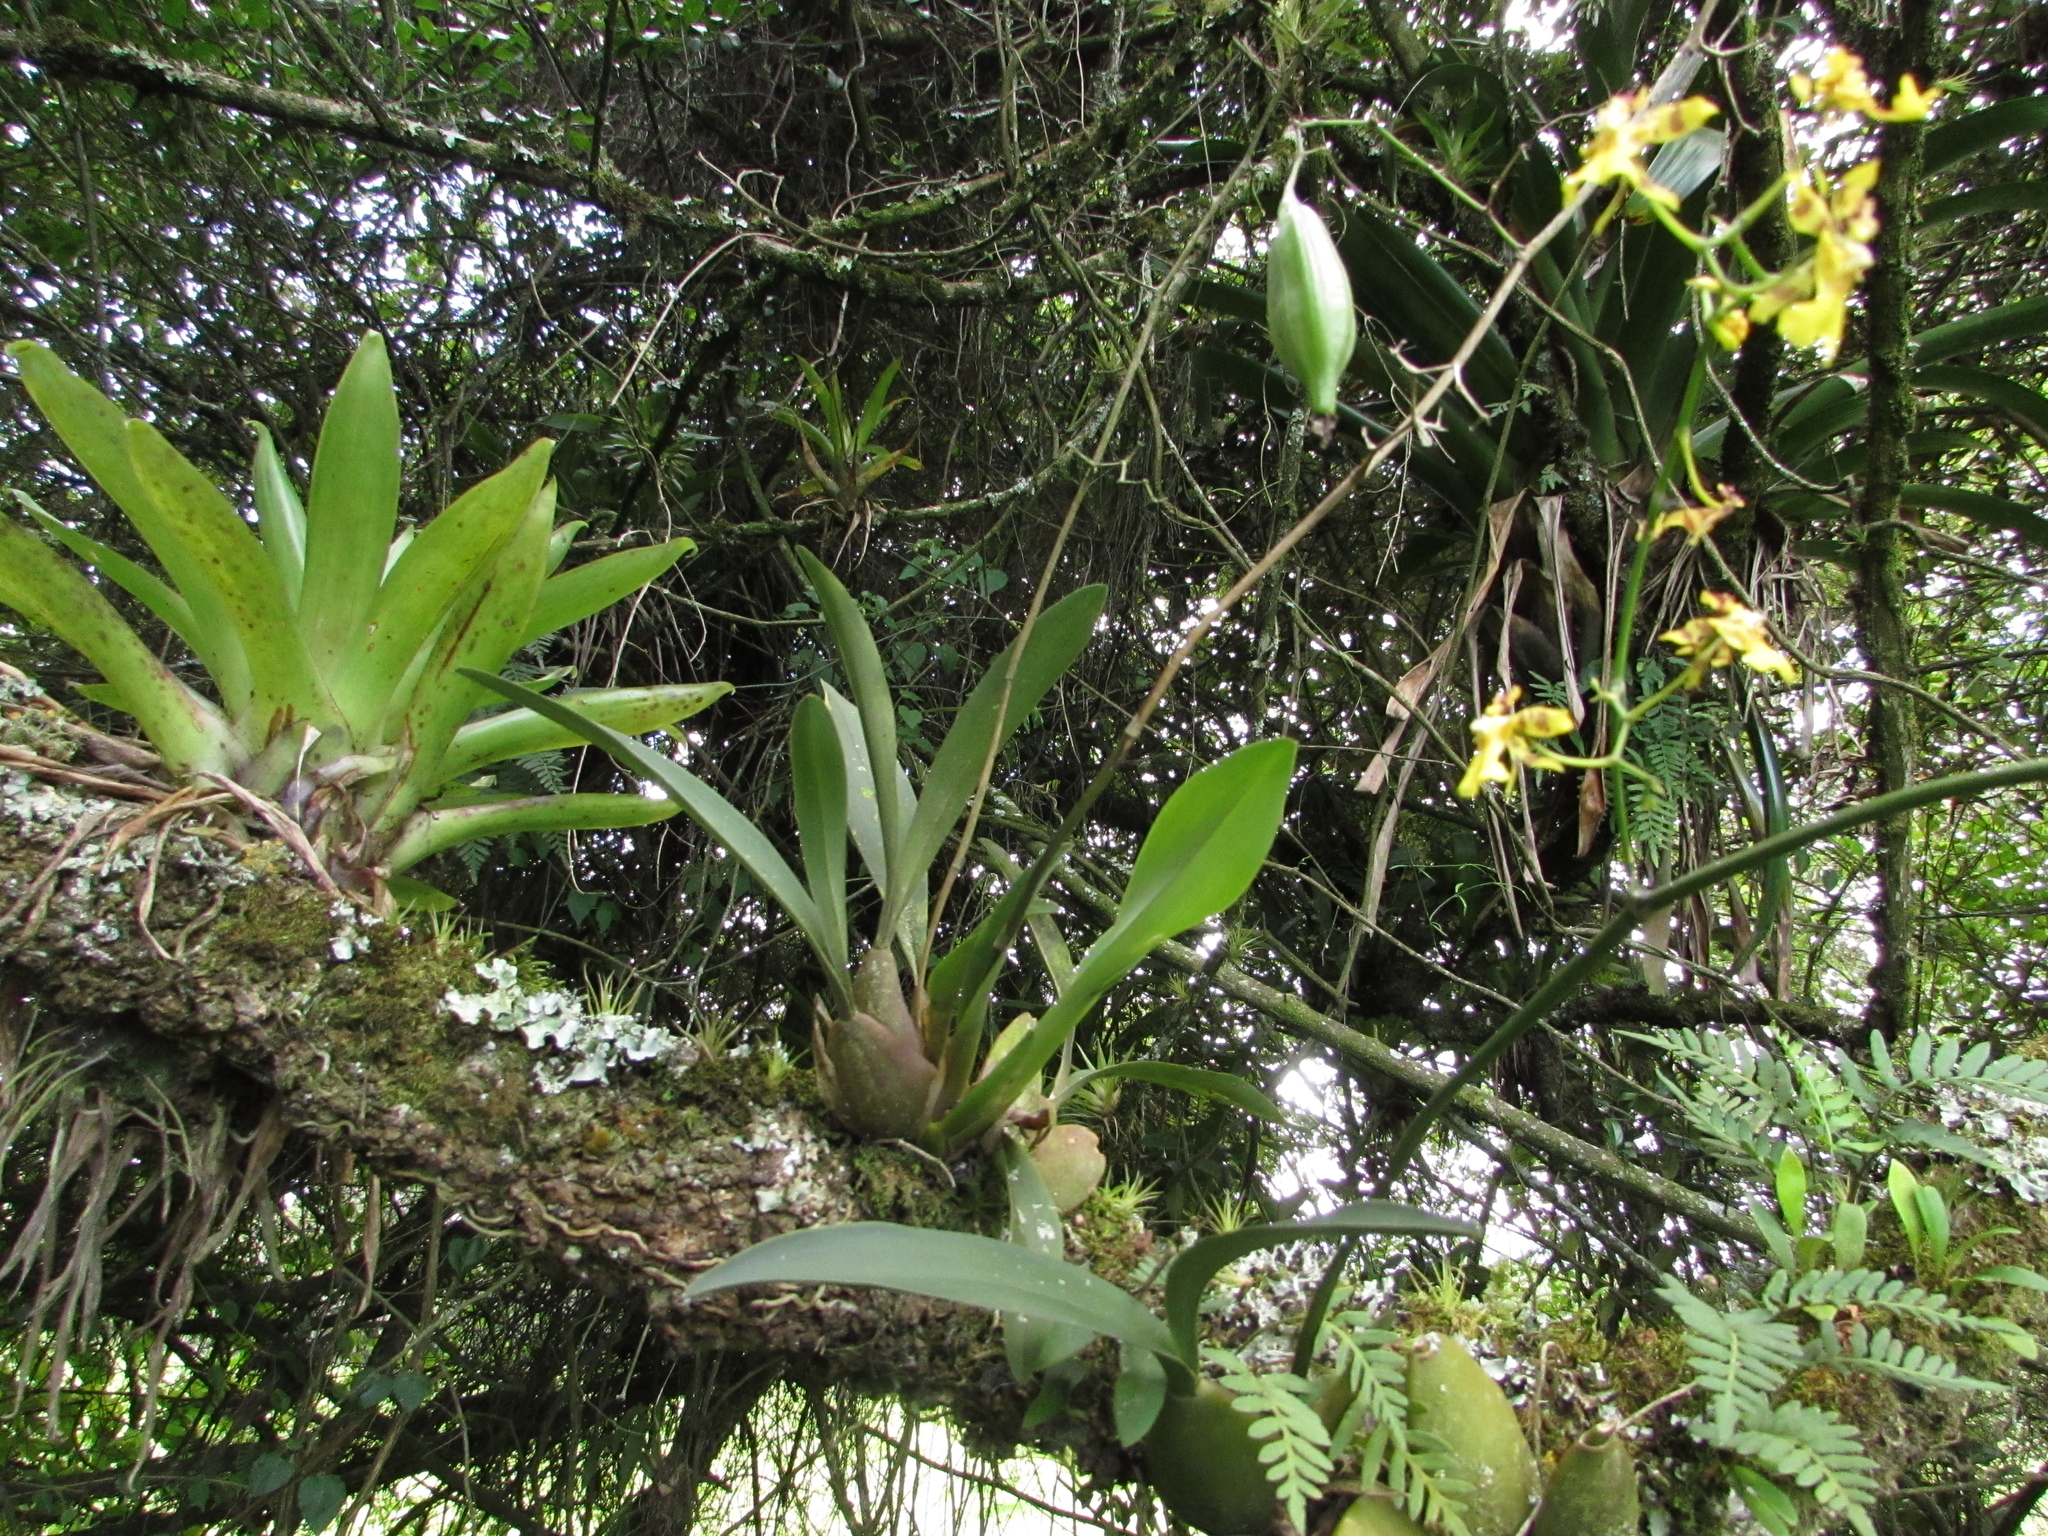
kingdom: Plantae
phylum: Tracheophyta
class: Liliopsida
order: Asparagales
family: Orchidaceae
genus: Oncidium
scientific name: Oncidium ornithorhynchum
